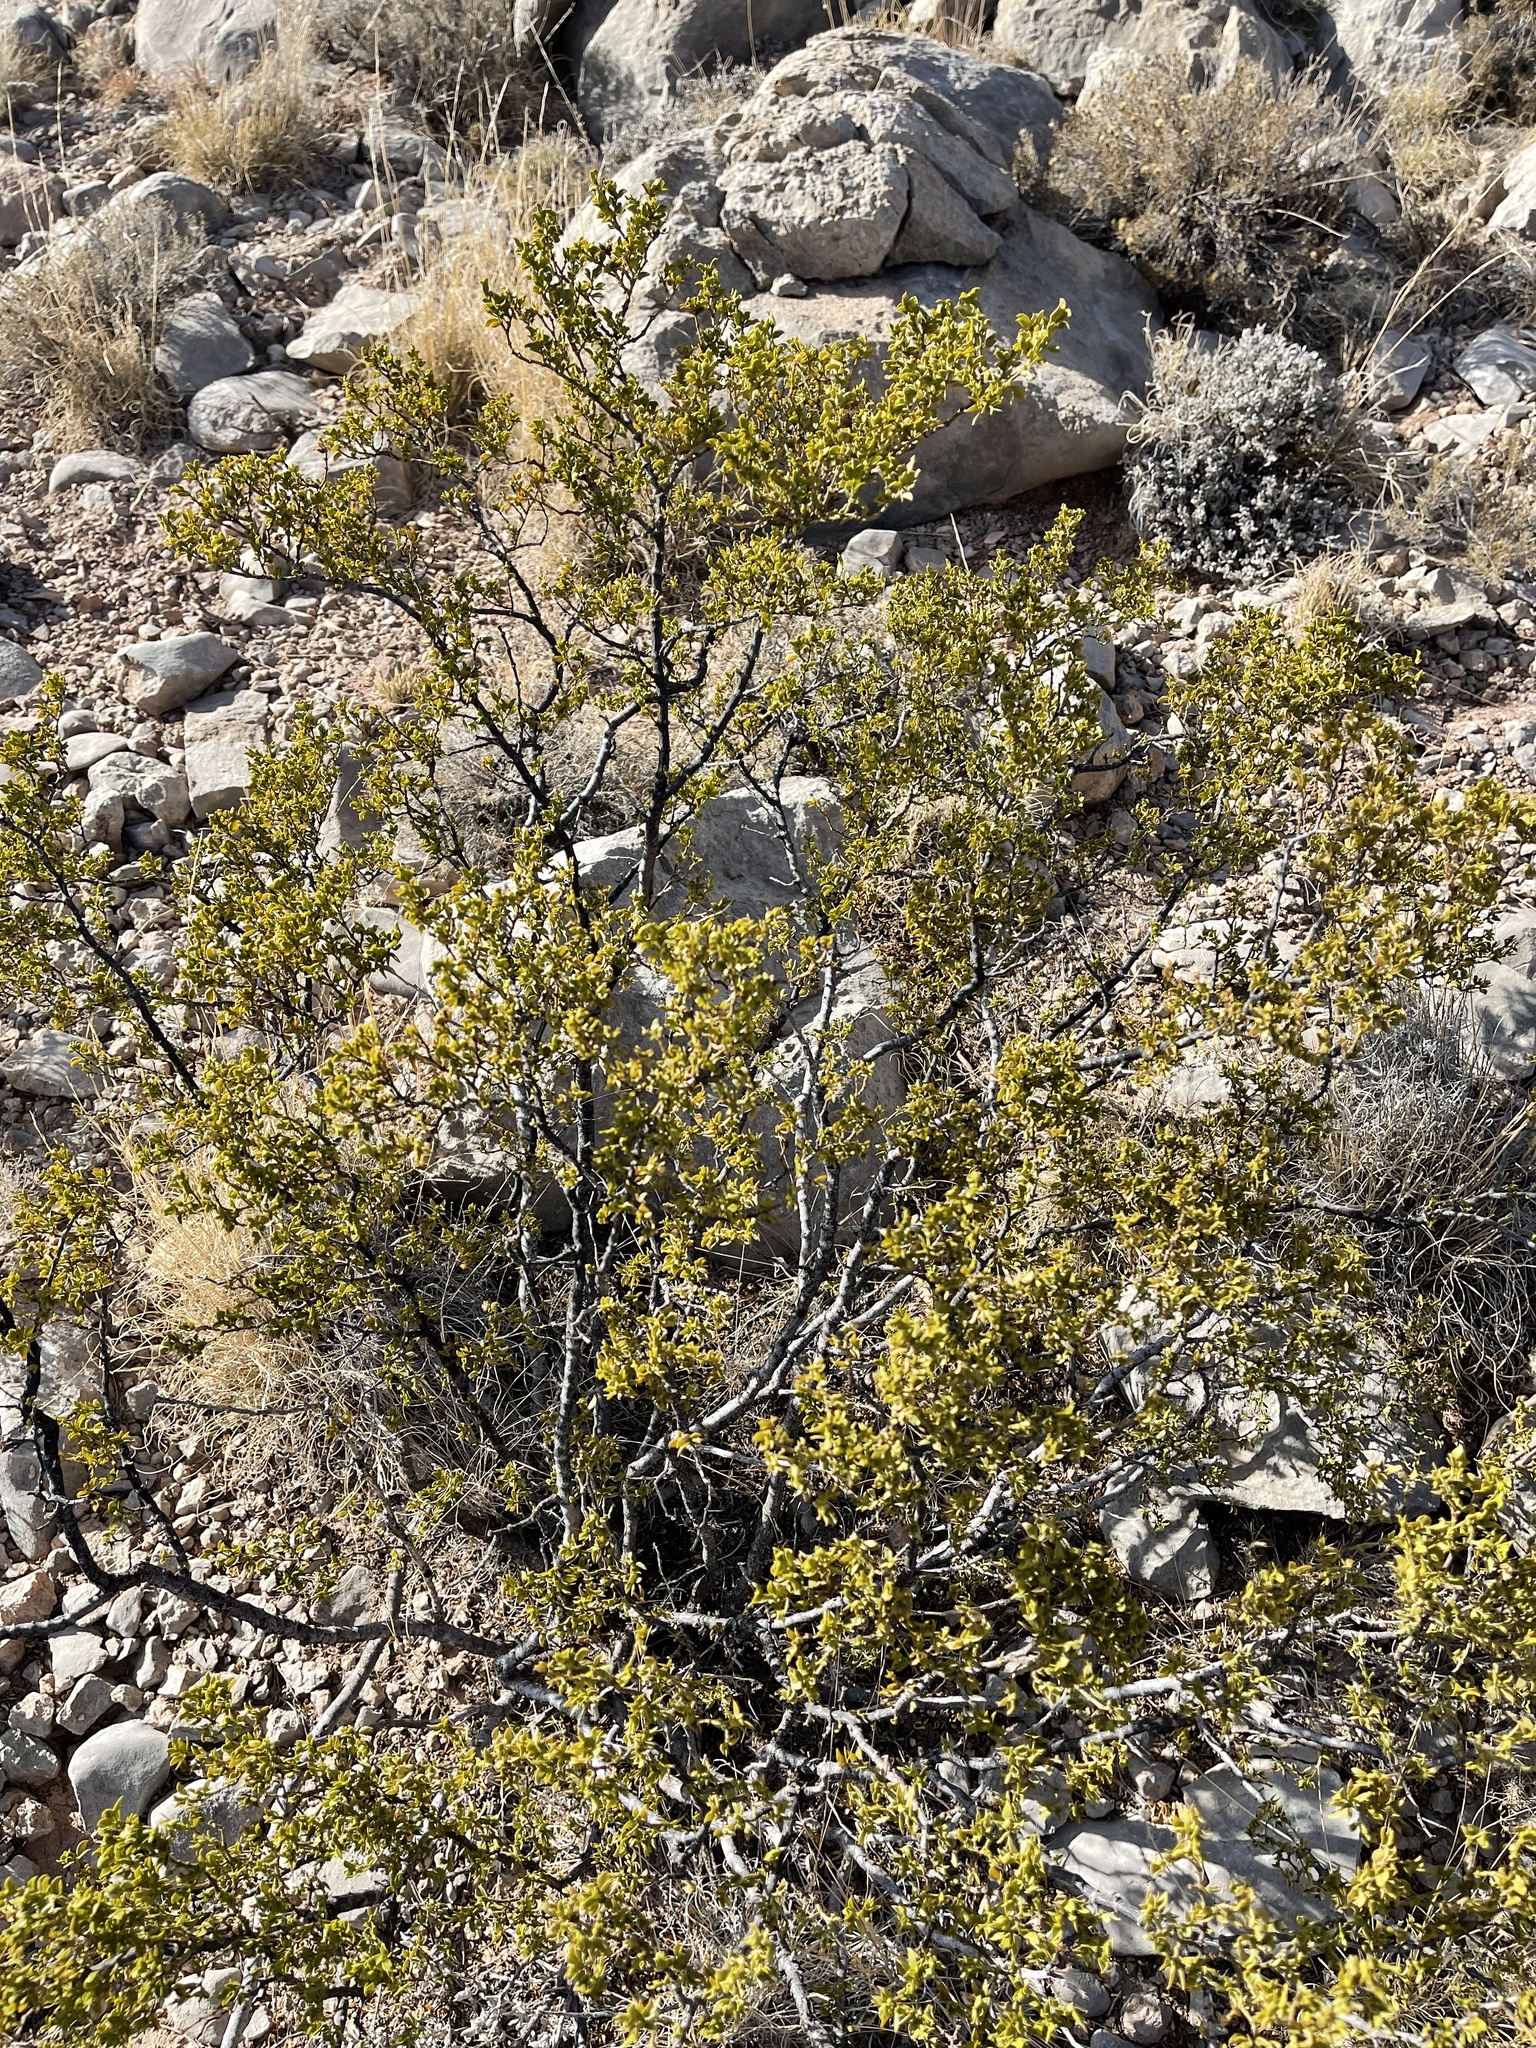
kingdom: Plantae
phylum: Tracheophyta
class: Magnoliopsida
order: Zygophyllales
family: Zygophyllaceae
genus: Larrea
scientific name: Larrea tridentata
